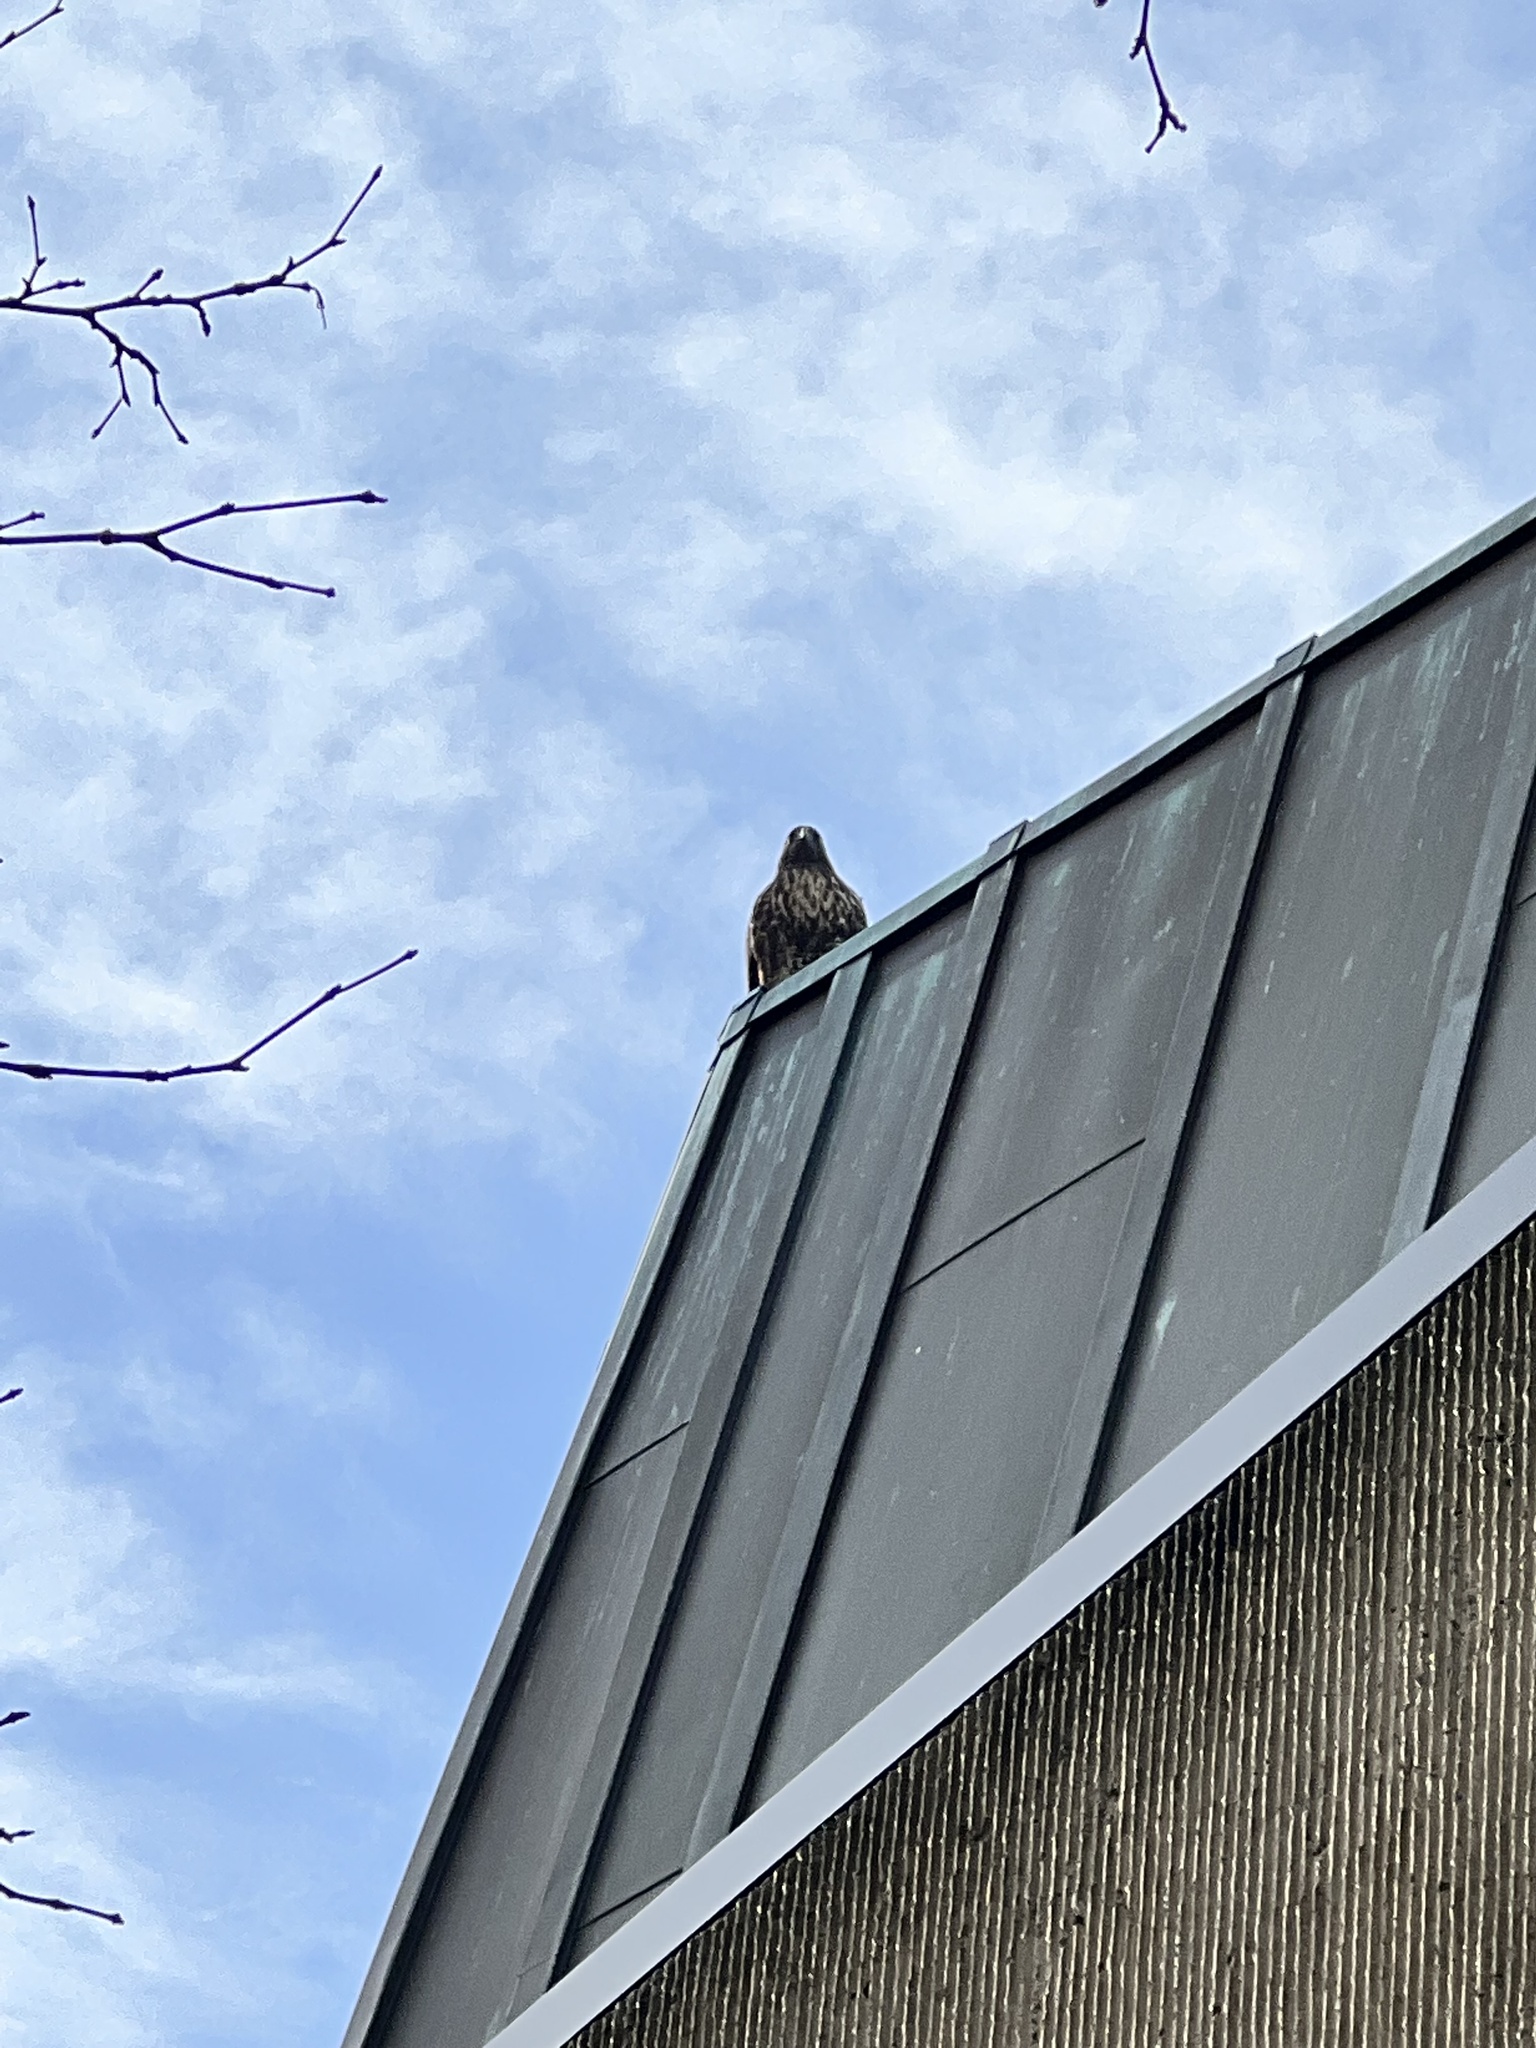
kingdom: Animalia
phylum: Chordata
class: Aves
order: Accipitriformes
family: Accipitridae
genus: Buteo
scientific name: Buteo jamaicensis
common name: Red-tailed hawk
